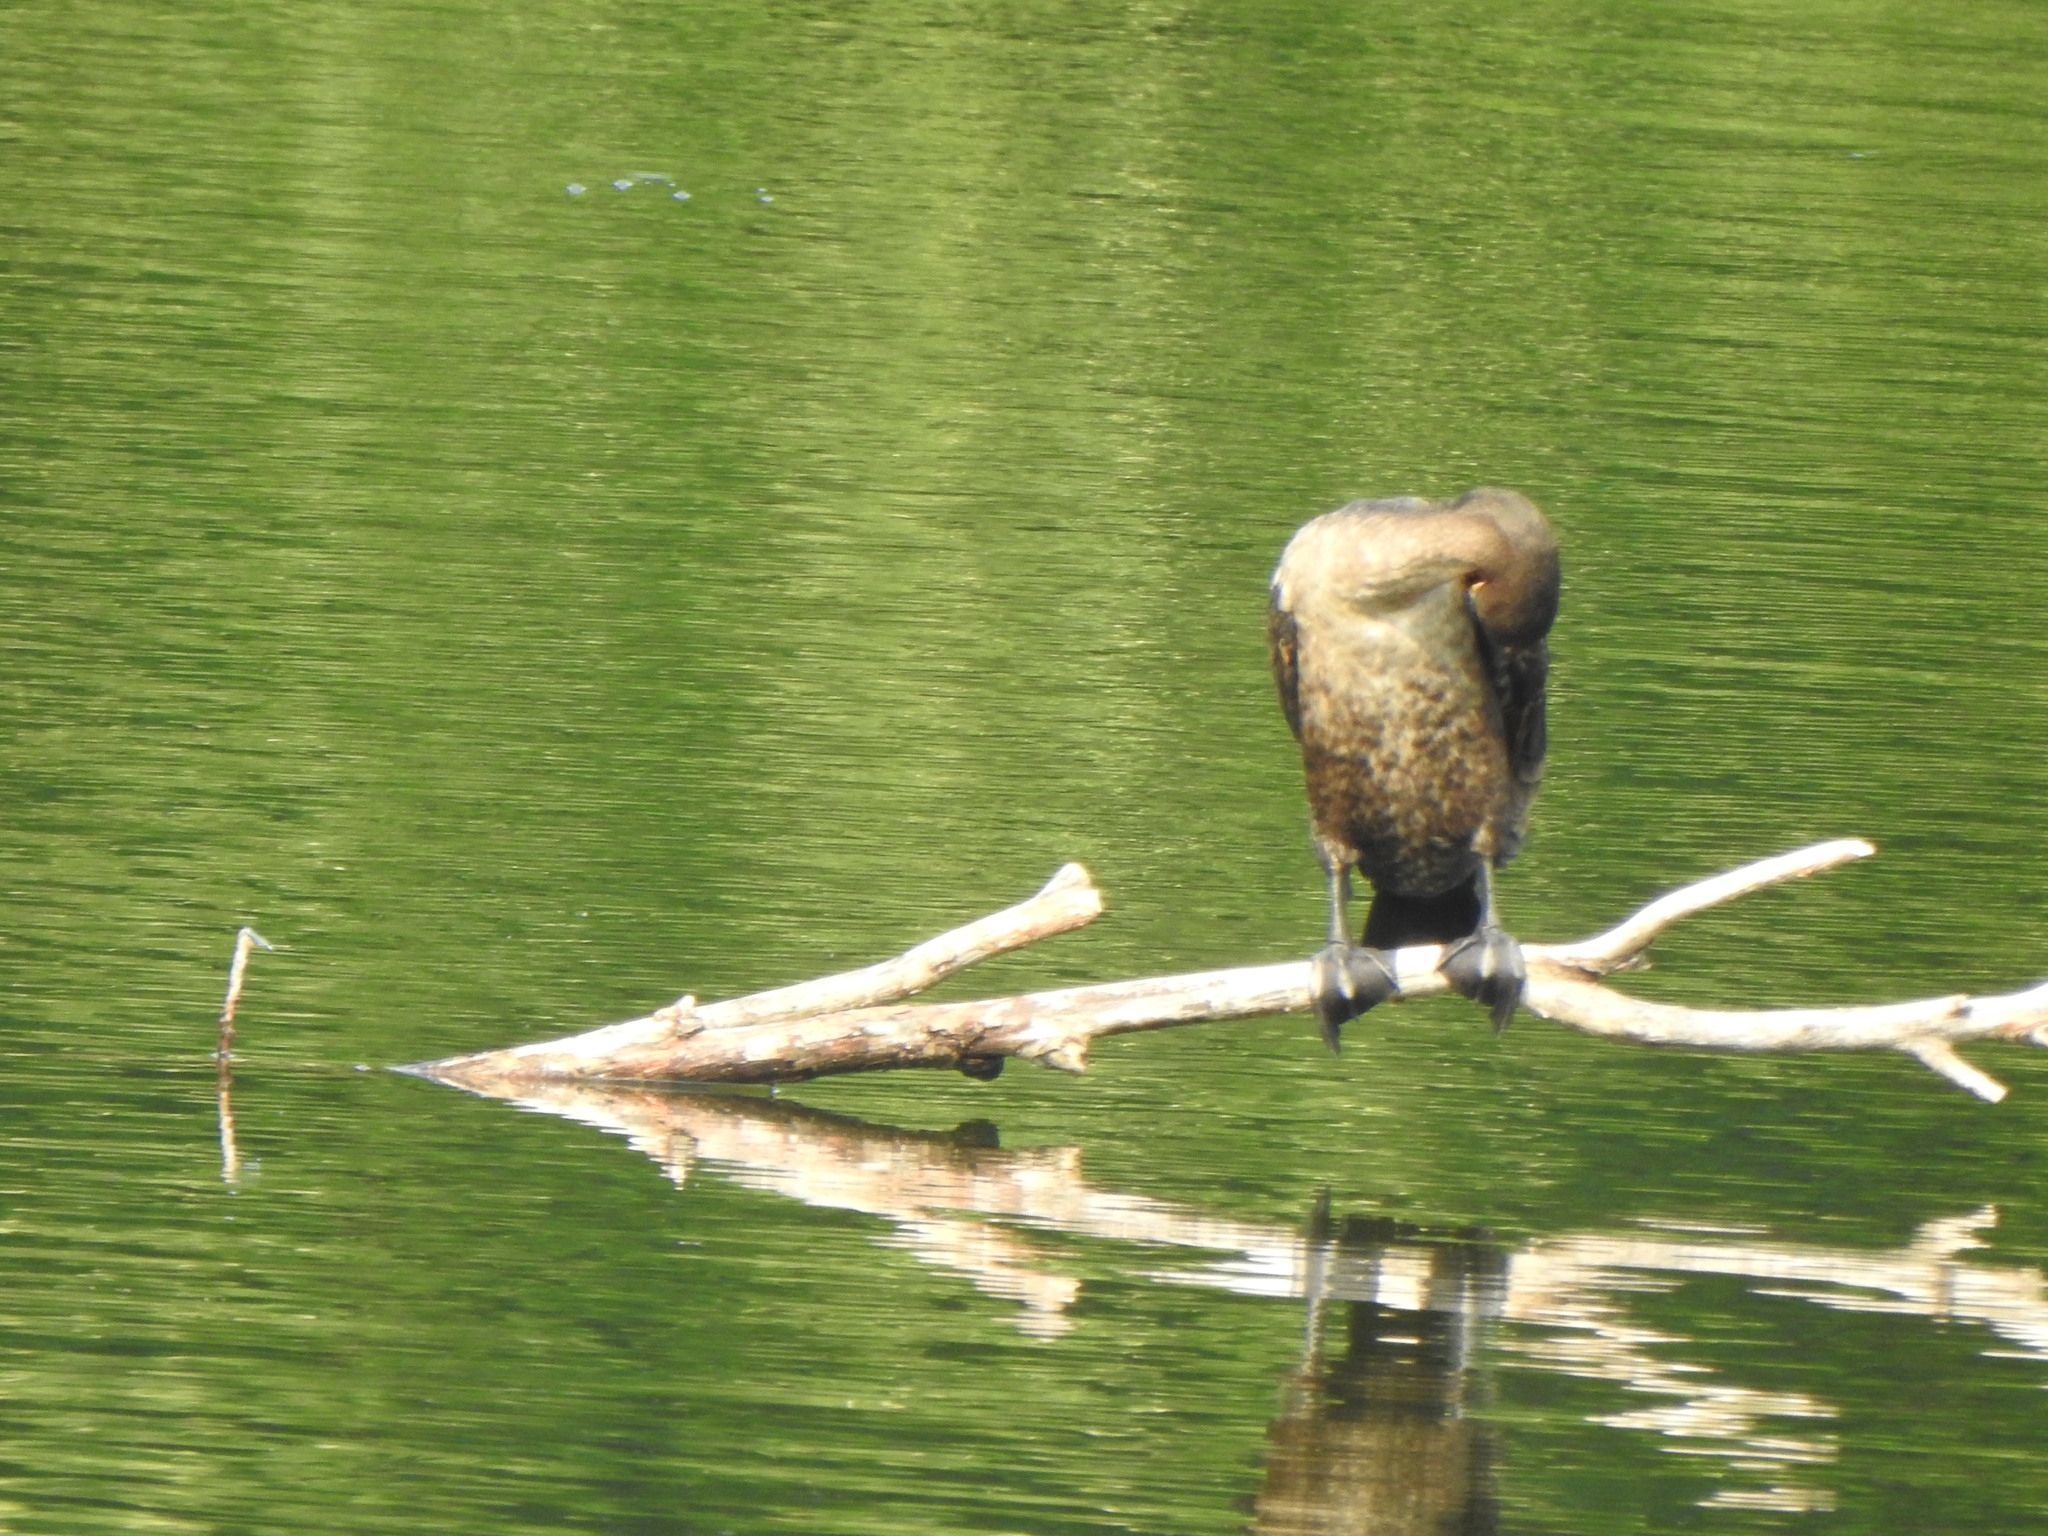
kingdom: Animalia
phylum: Chordata
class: Aves
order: Suliformes
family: Phalacrocoracidae
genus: Phalacrocorax
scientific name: Phalacrocorax auritus
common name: Double-crested cormorant
